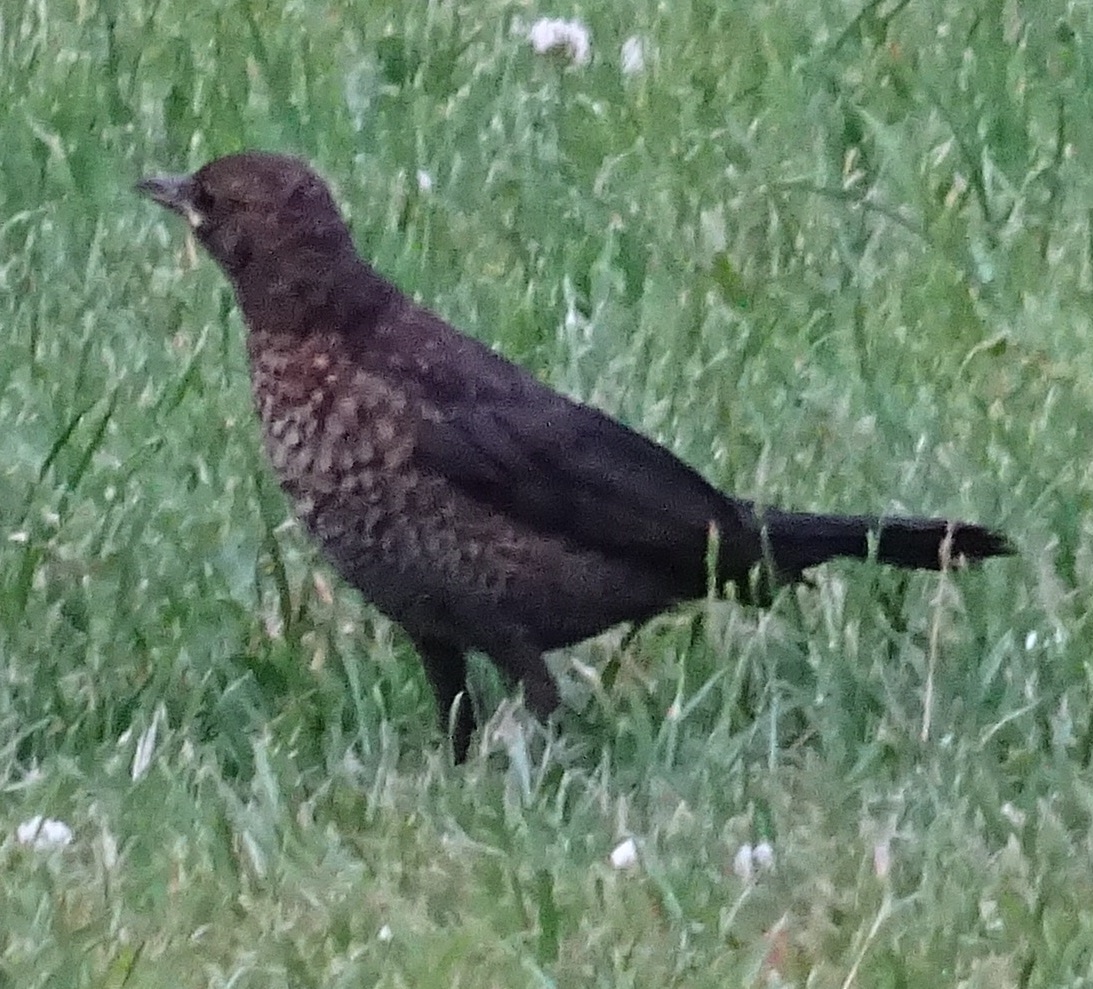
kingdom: Animalia
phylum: Chordata
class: Aves
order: Passeriformes
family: Turdidae
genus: Turdus
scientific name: Turdus merula
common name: Common blackbird
